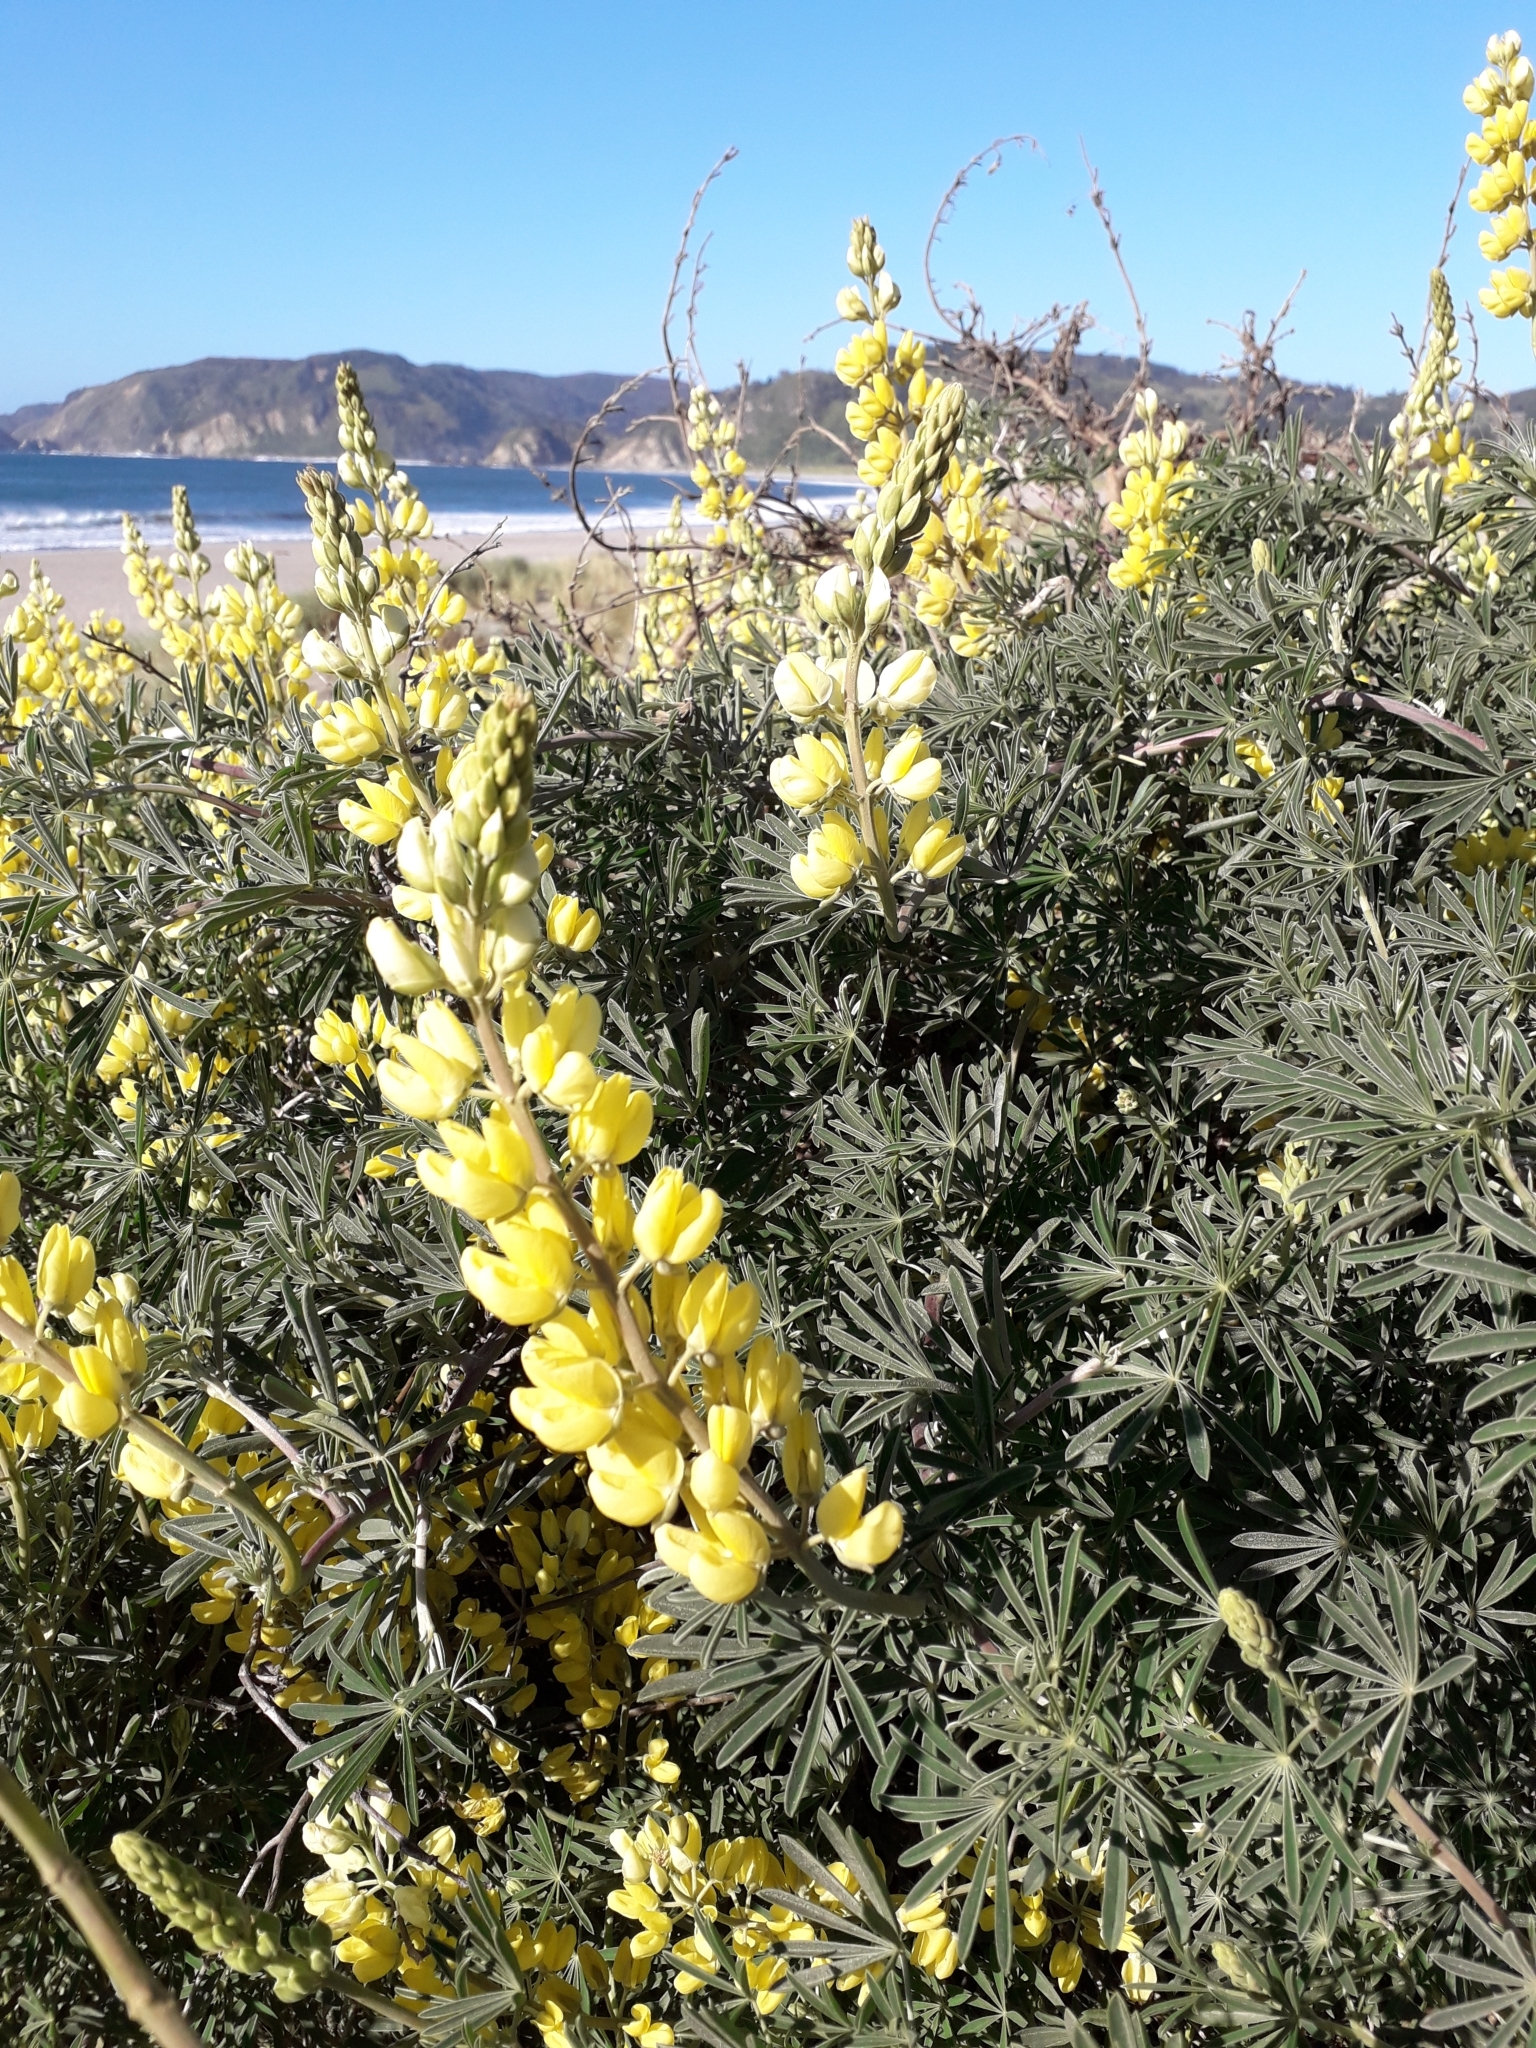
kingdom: Plantae
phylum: Tracheophyta
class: Magnoliopsida
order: Fabales
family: Fabaceae
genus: Lupinus
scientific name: Lupinus arboreus
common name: Yellow bush lupine
